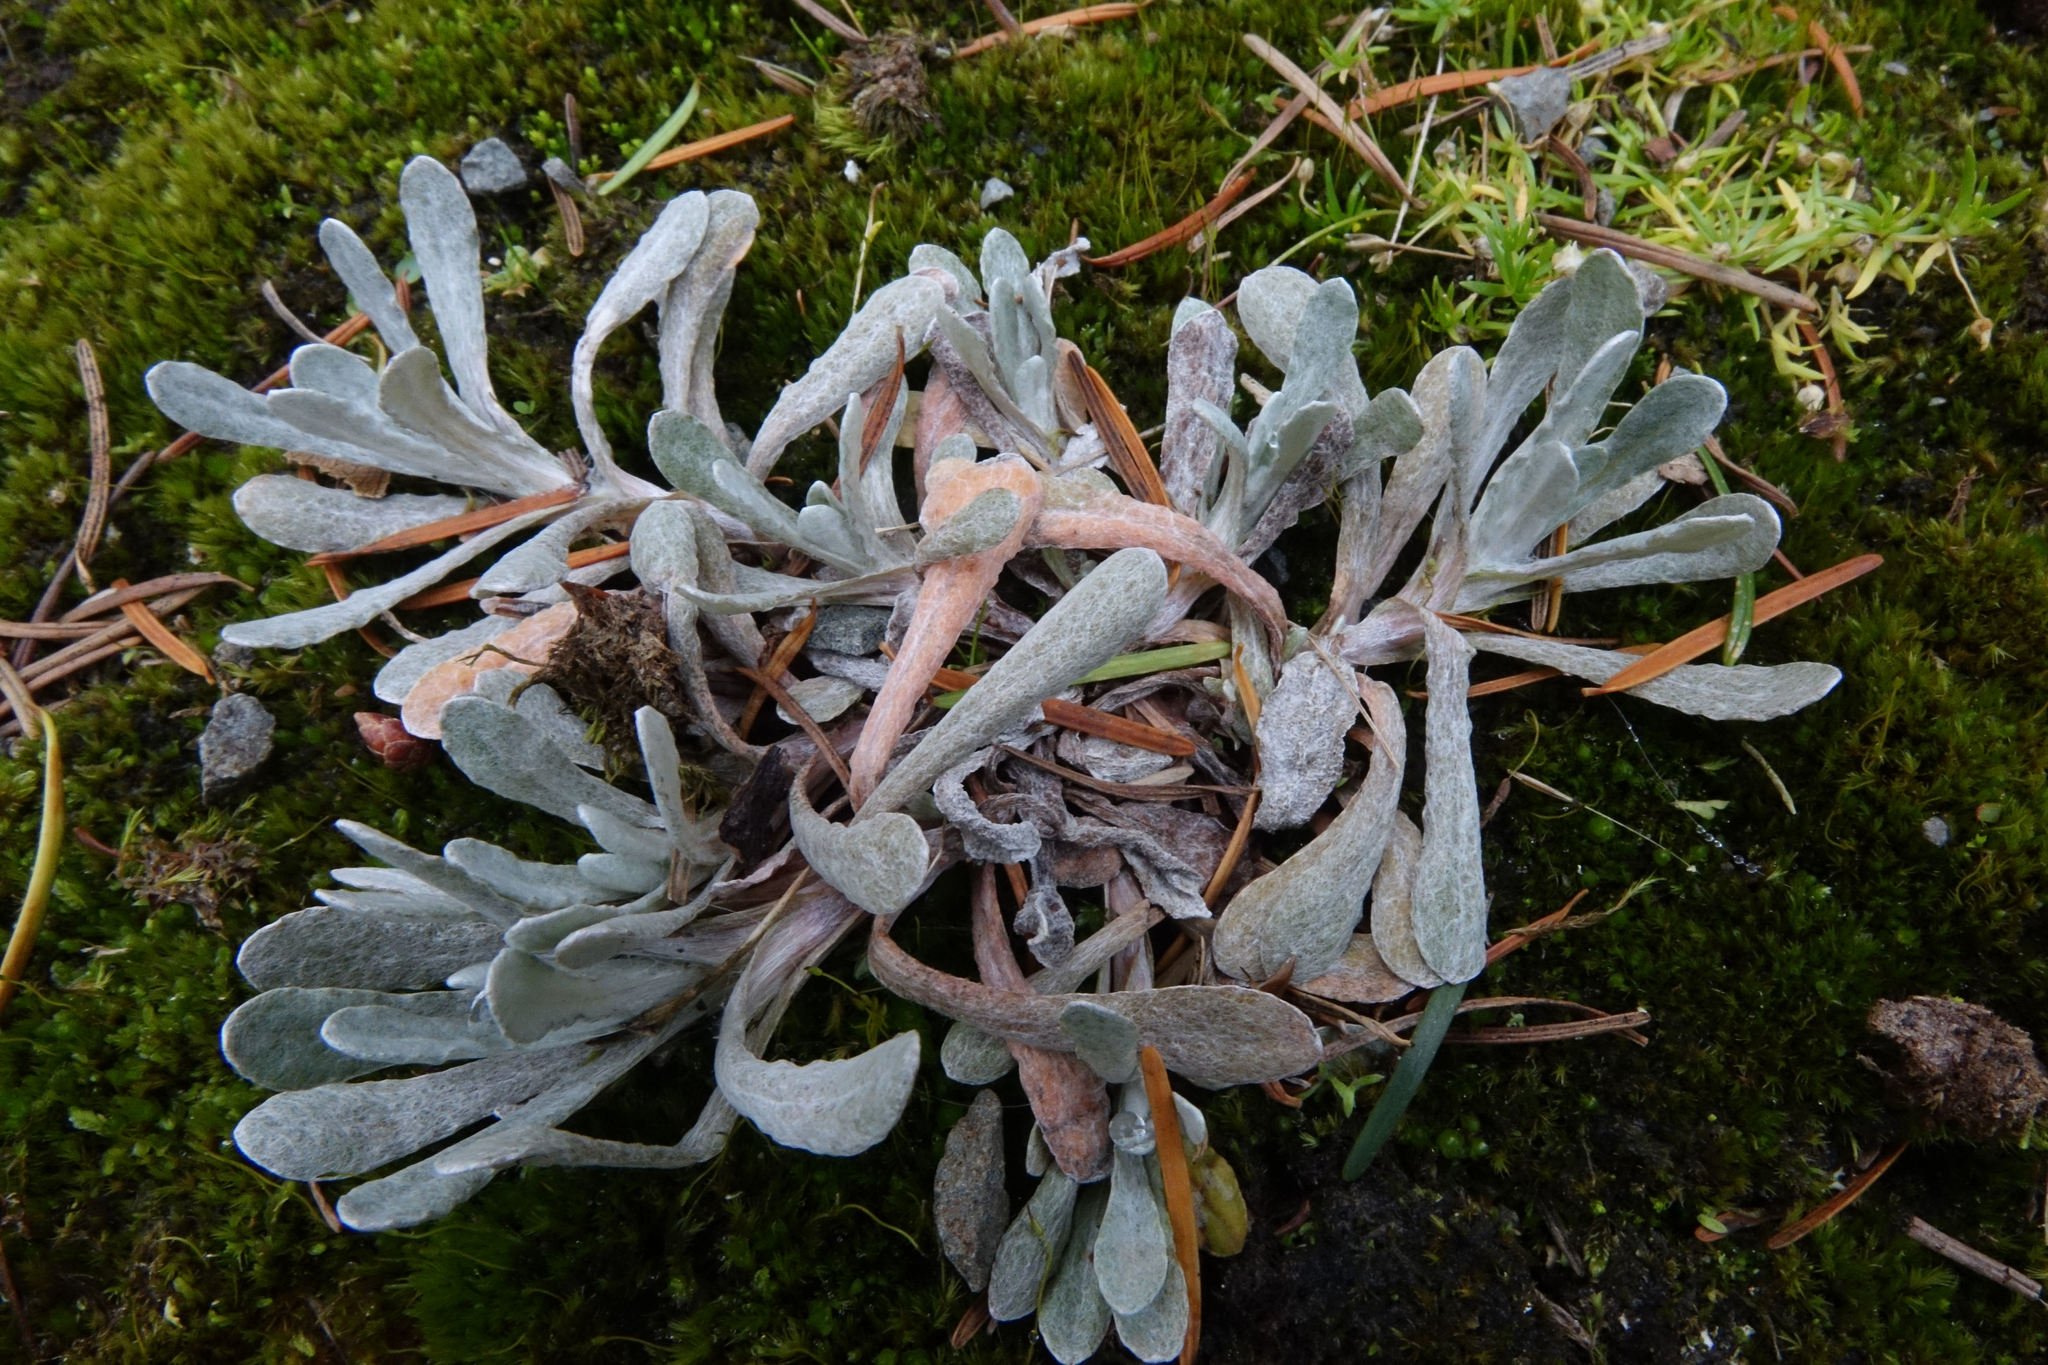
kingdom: Plantae
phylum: Tracheophyta
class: Magnoliopsida
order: Asterales
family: Asteraceae
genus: Helichrysum
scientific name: Helichrysum luteoalbum
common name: Daisy
